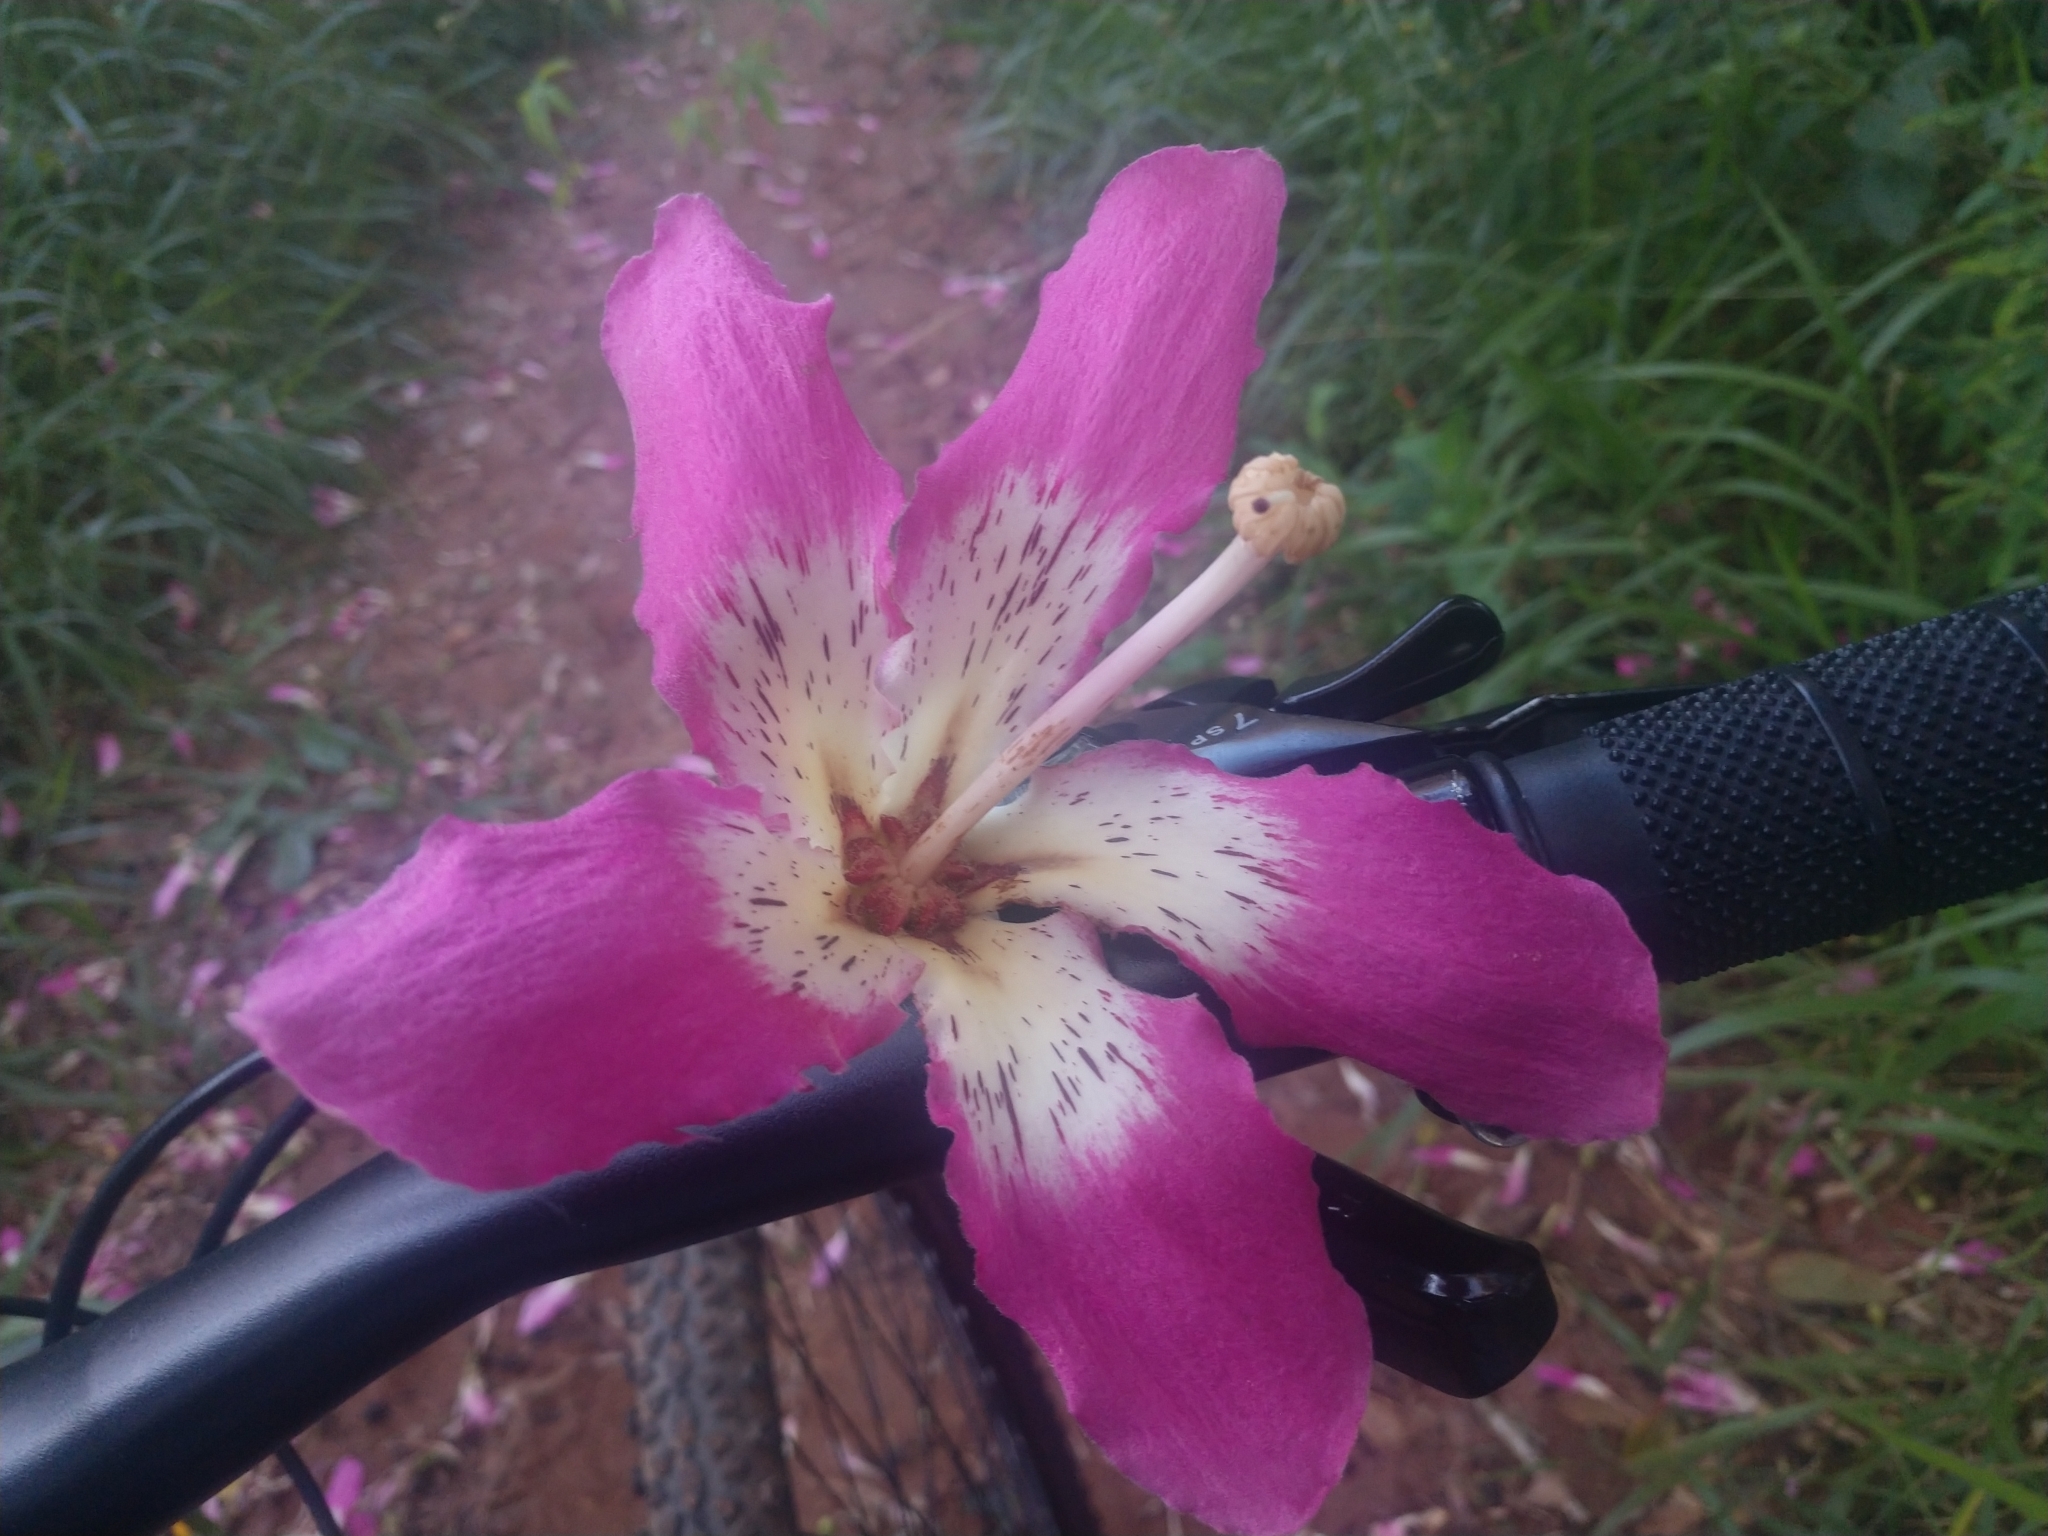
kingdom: Plantae
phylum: Tracheophyta
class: Magnoliopsida
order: Malvales
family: Malvaceae
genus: Ceiba
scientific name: Ceiba speciosa
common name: Silk-floss tree
